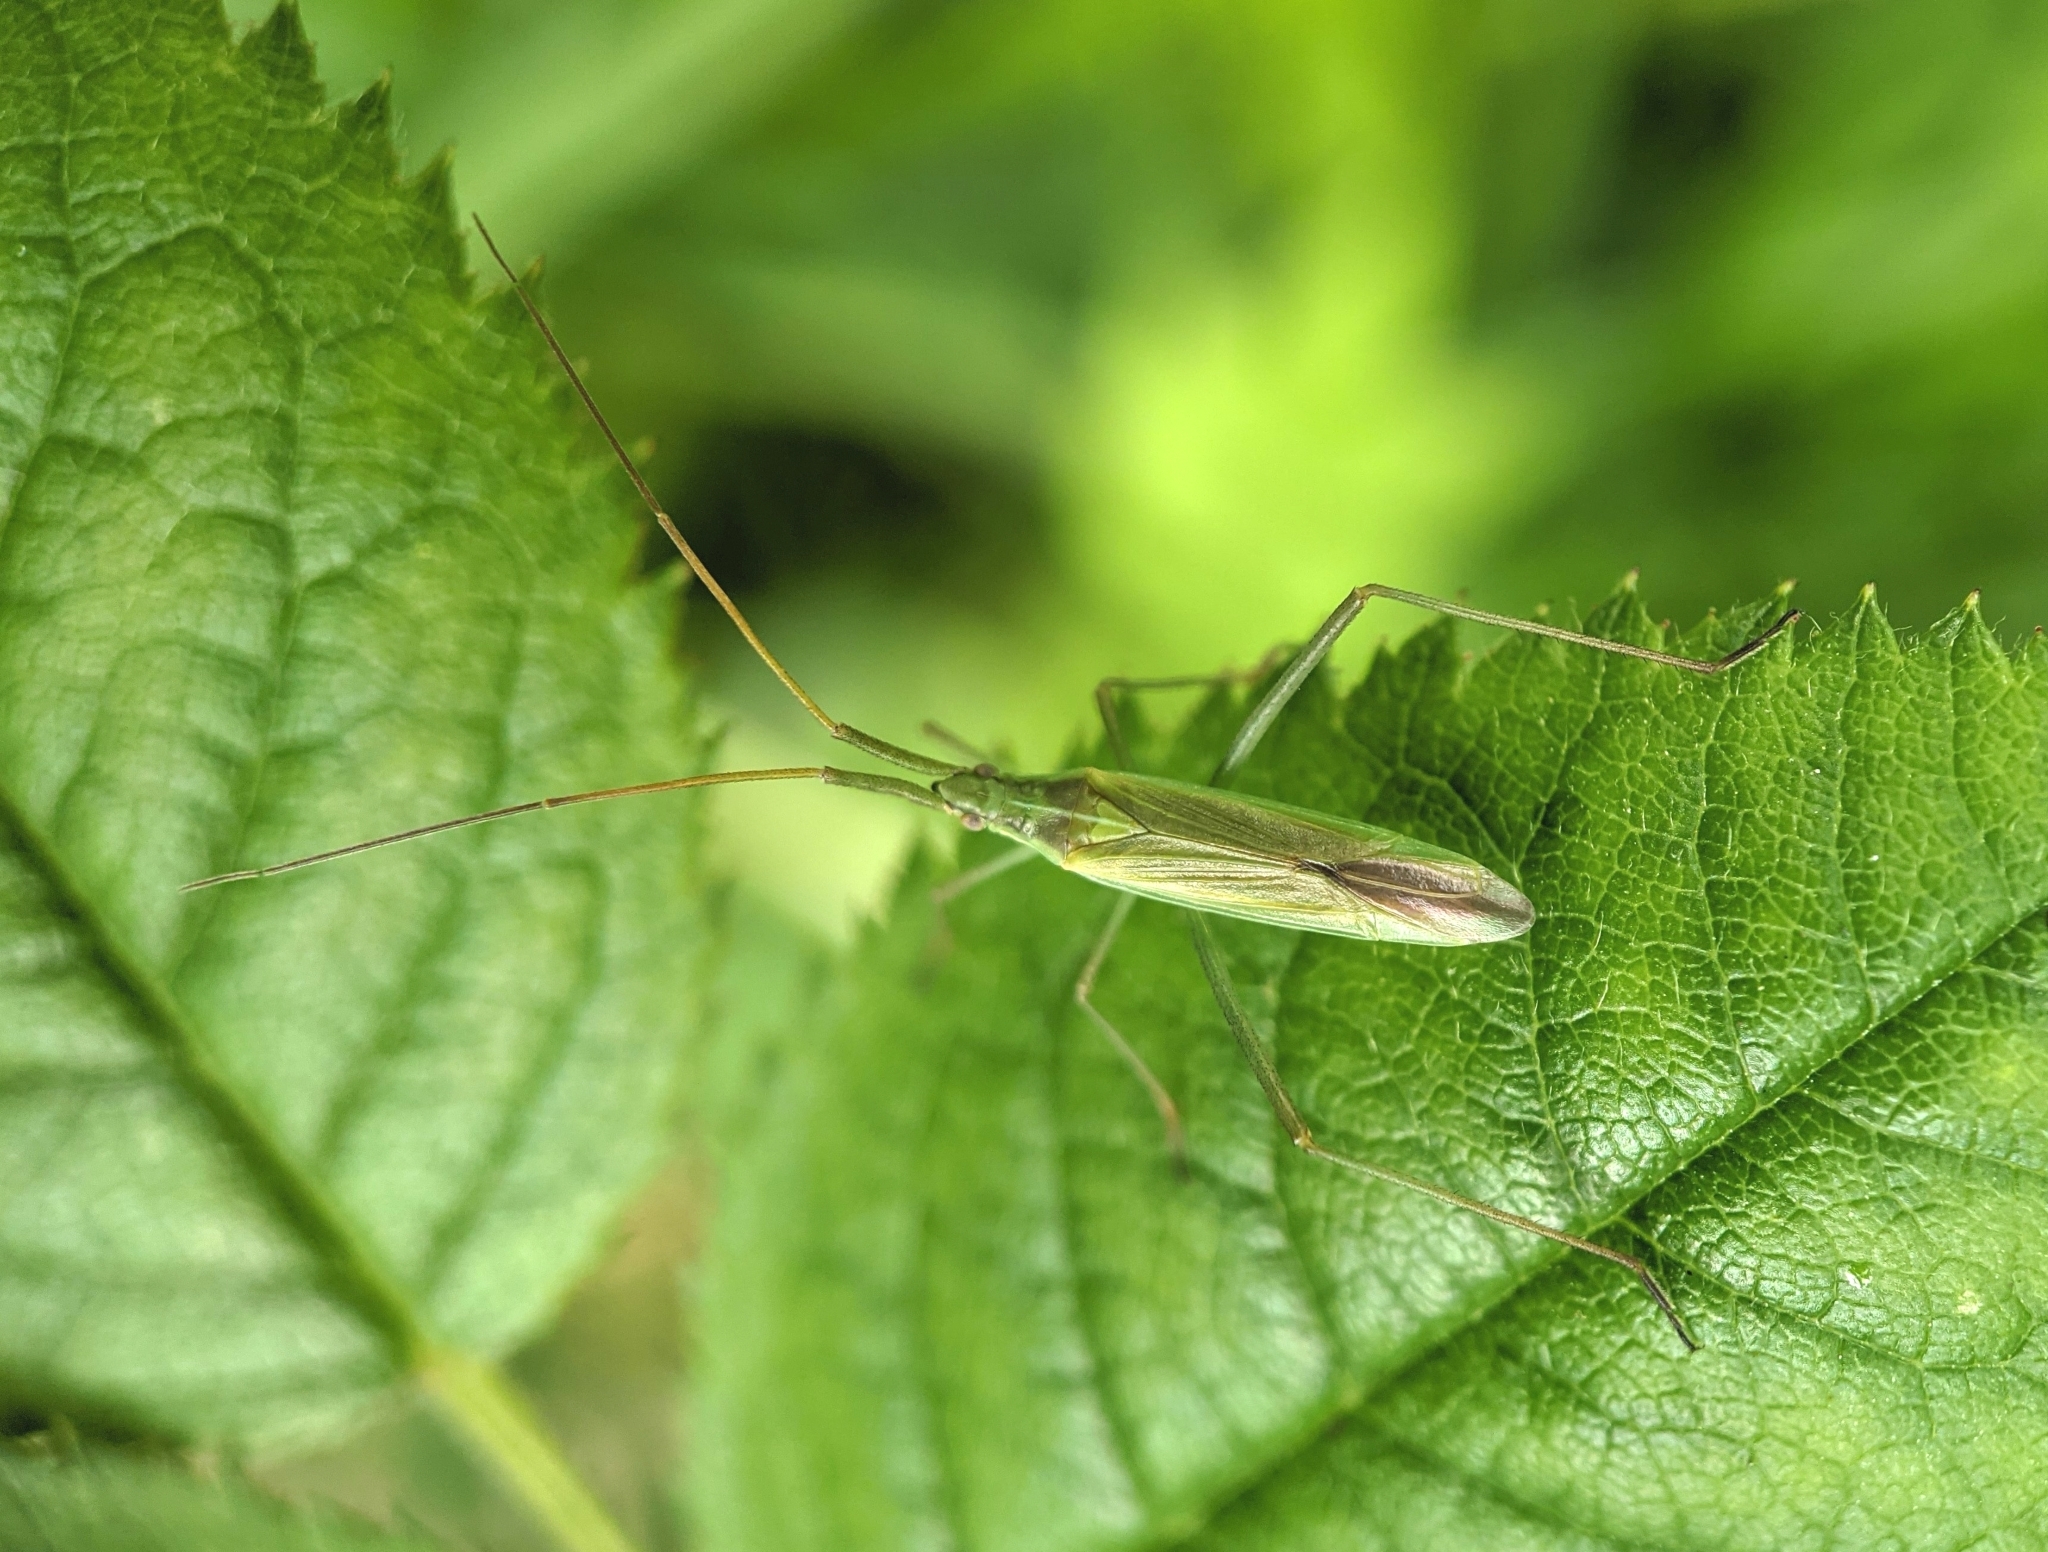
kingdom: Animalia
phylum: Arthropoda
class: Insecta
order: Hemiptera
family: Miridae
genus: Megaloceroea
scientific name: Megaloceroea recticornis
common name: Plant bug
